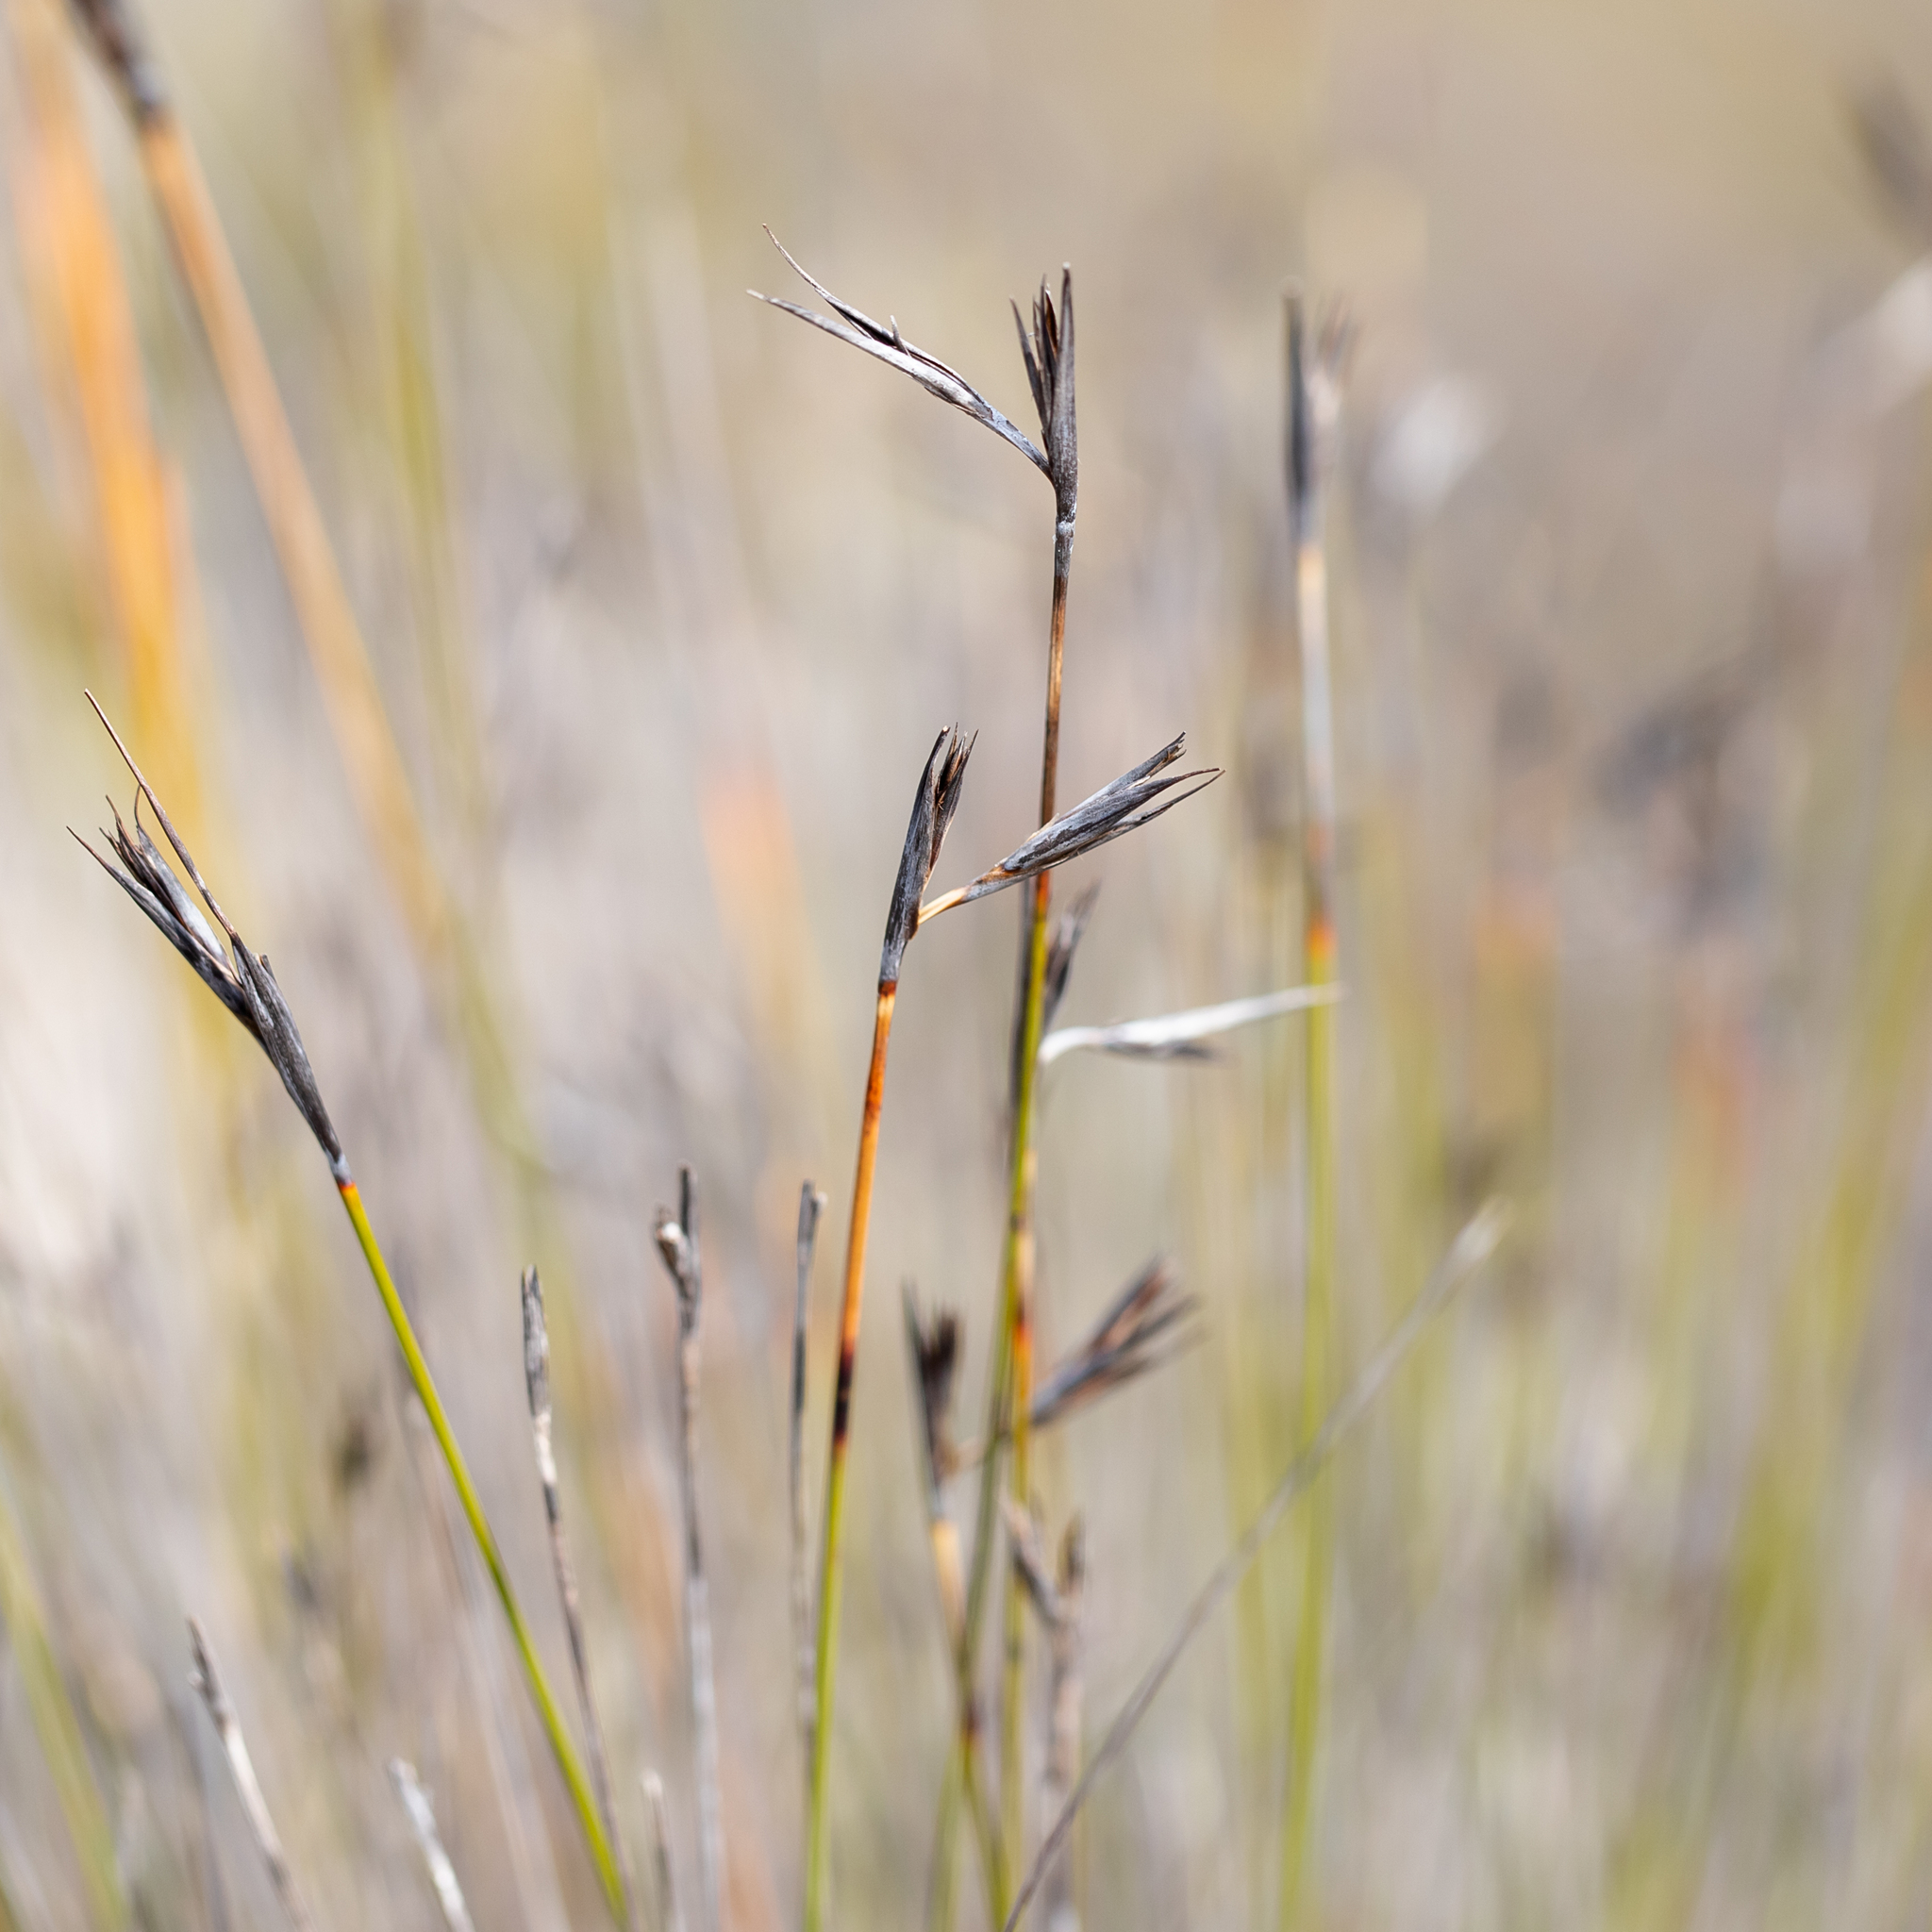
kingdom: Plantae
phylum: Tracheophyta
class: Liliopsida
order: Poales
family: Cyperaceae
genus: Lepidosperma
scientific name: Lepidosperma carphoides
